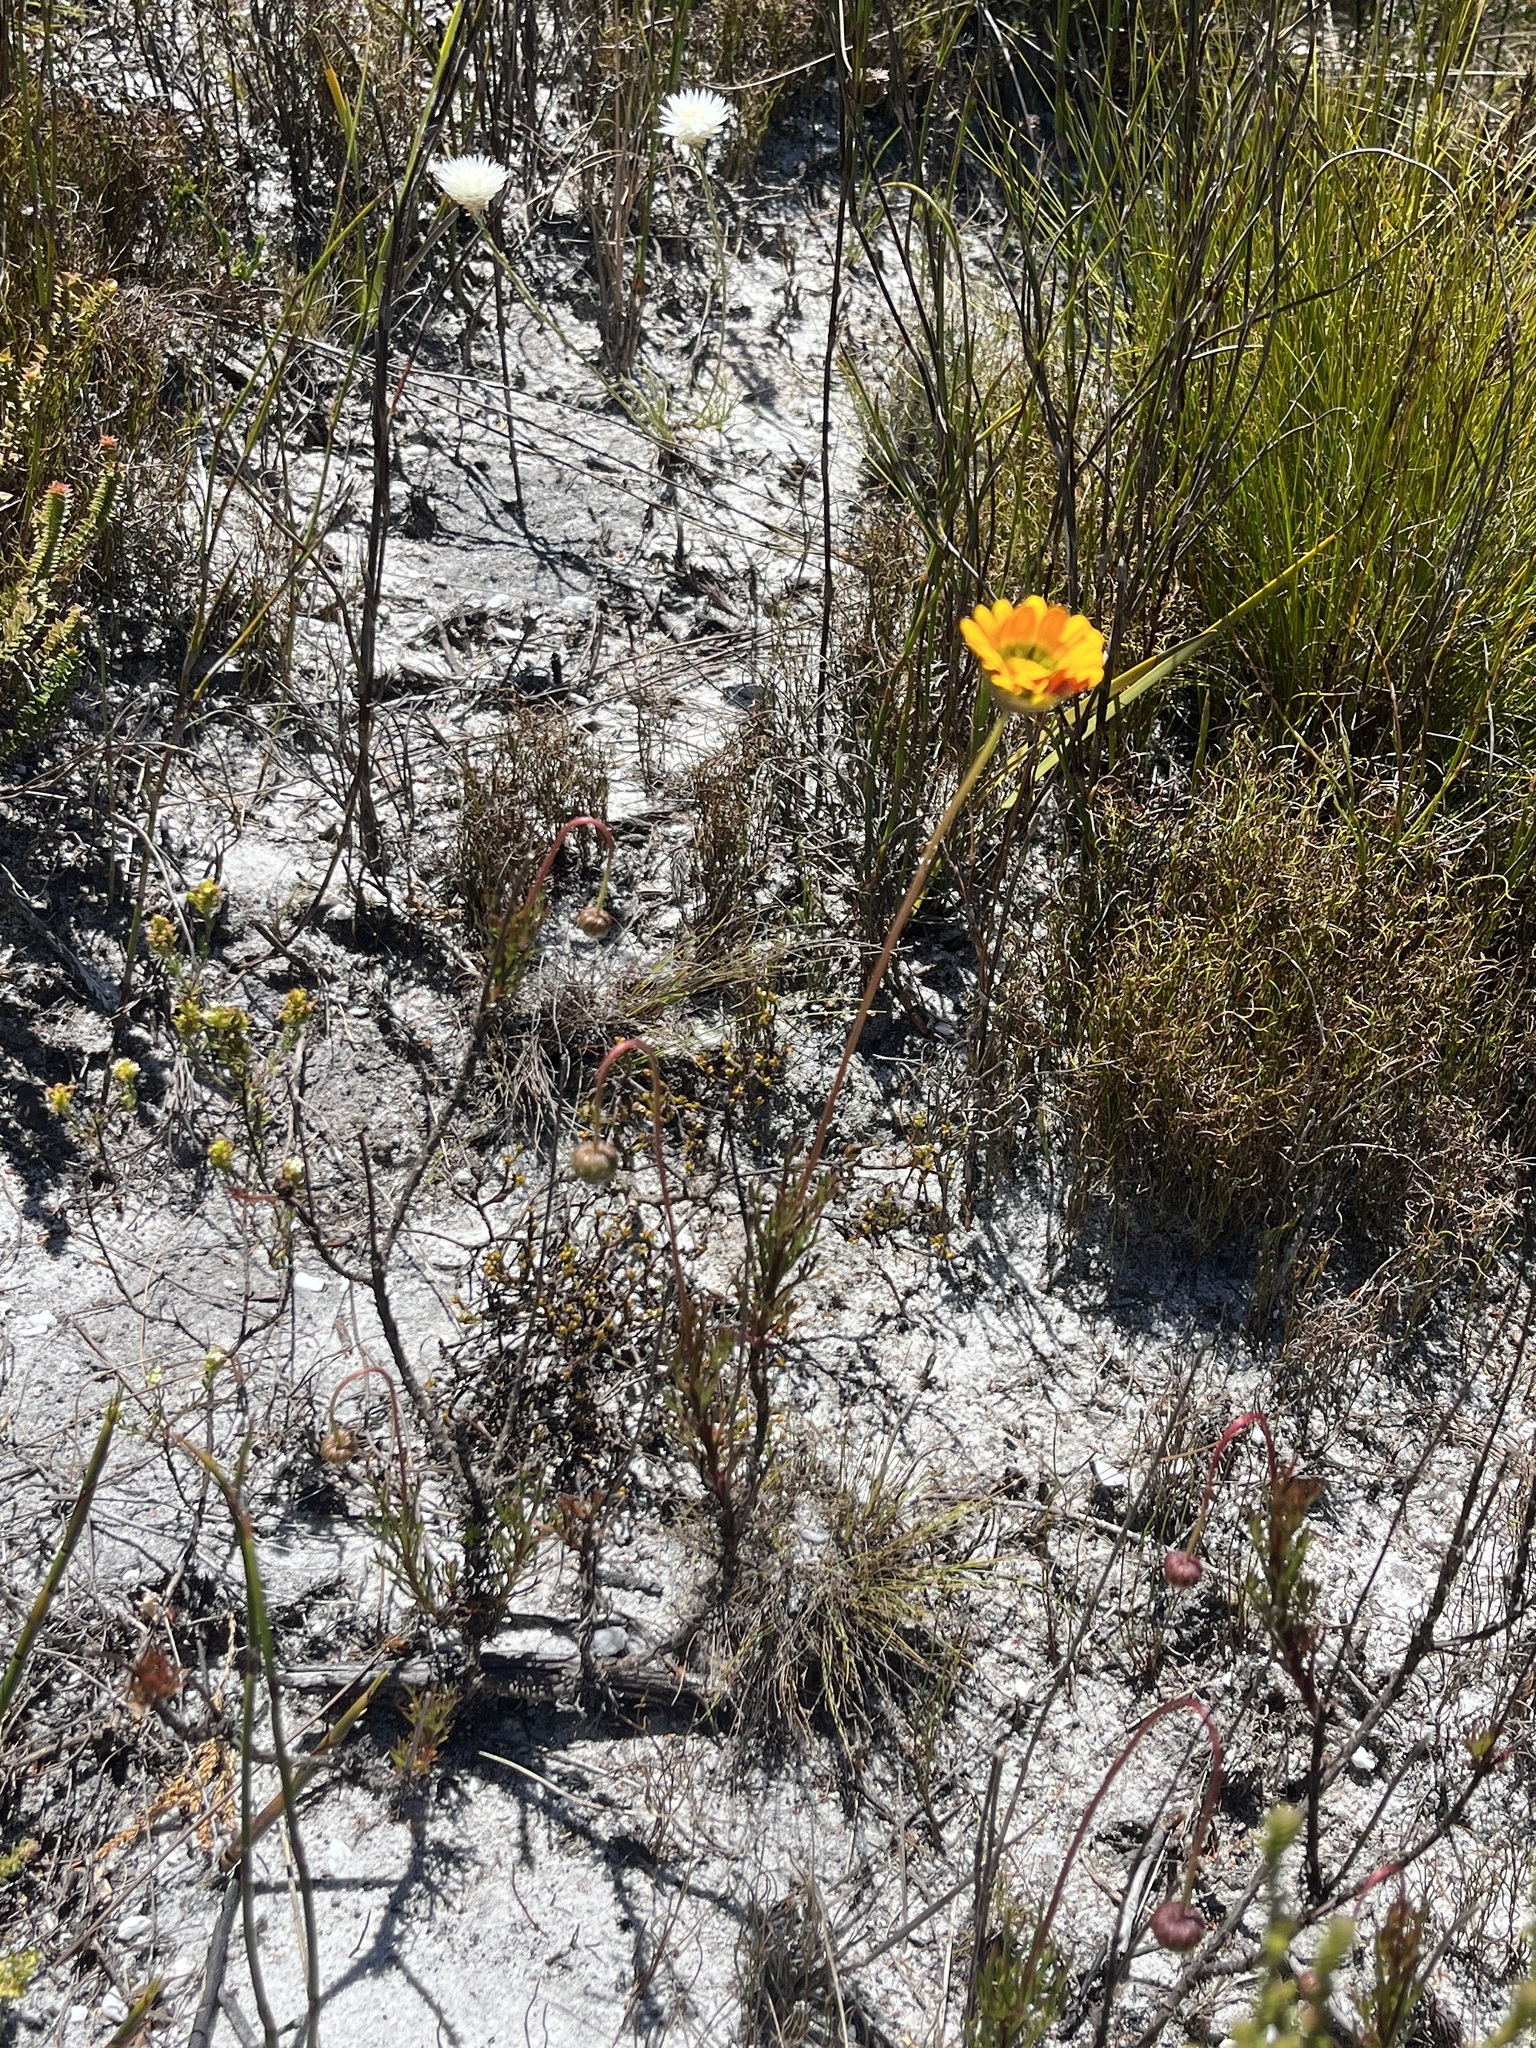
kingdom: Plantae
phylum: Tracheophyta
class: Magnoliopsida
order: Asterales
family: Asteraceae
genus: Ursinia
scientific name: Ursinia oreogena
